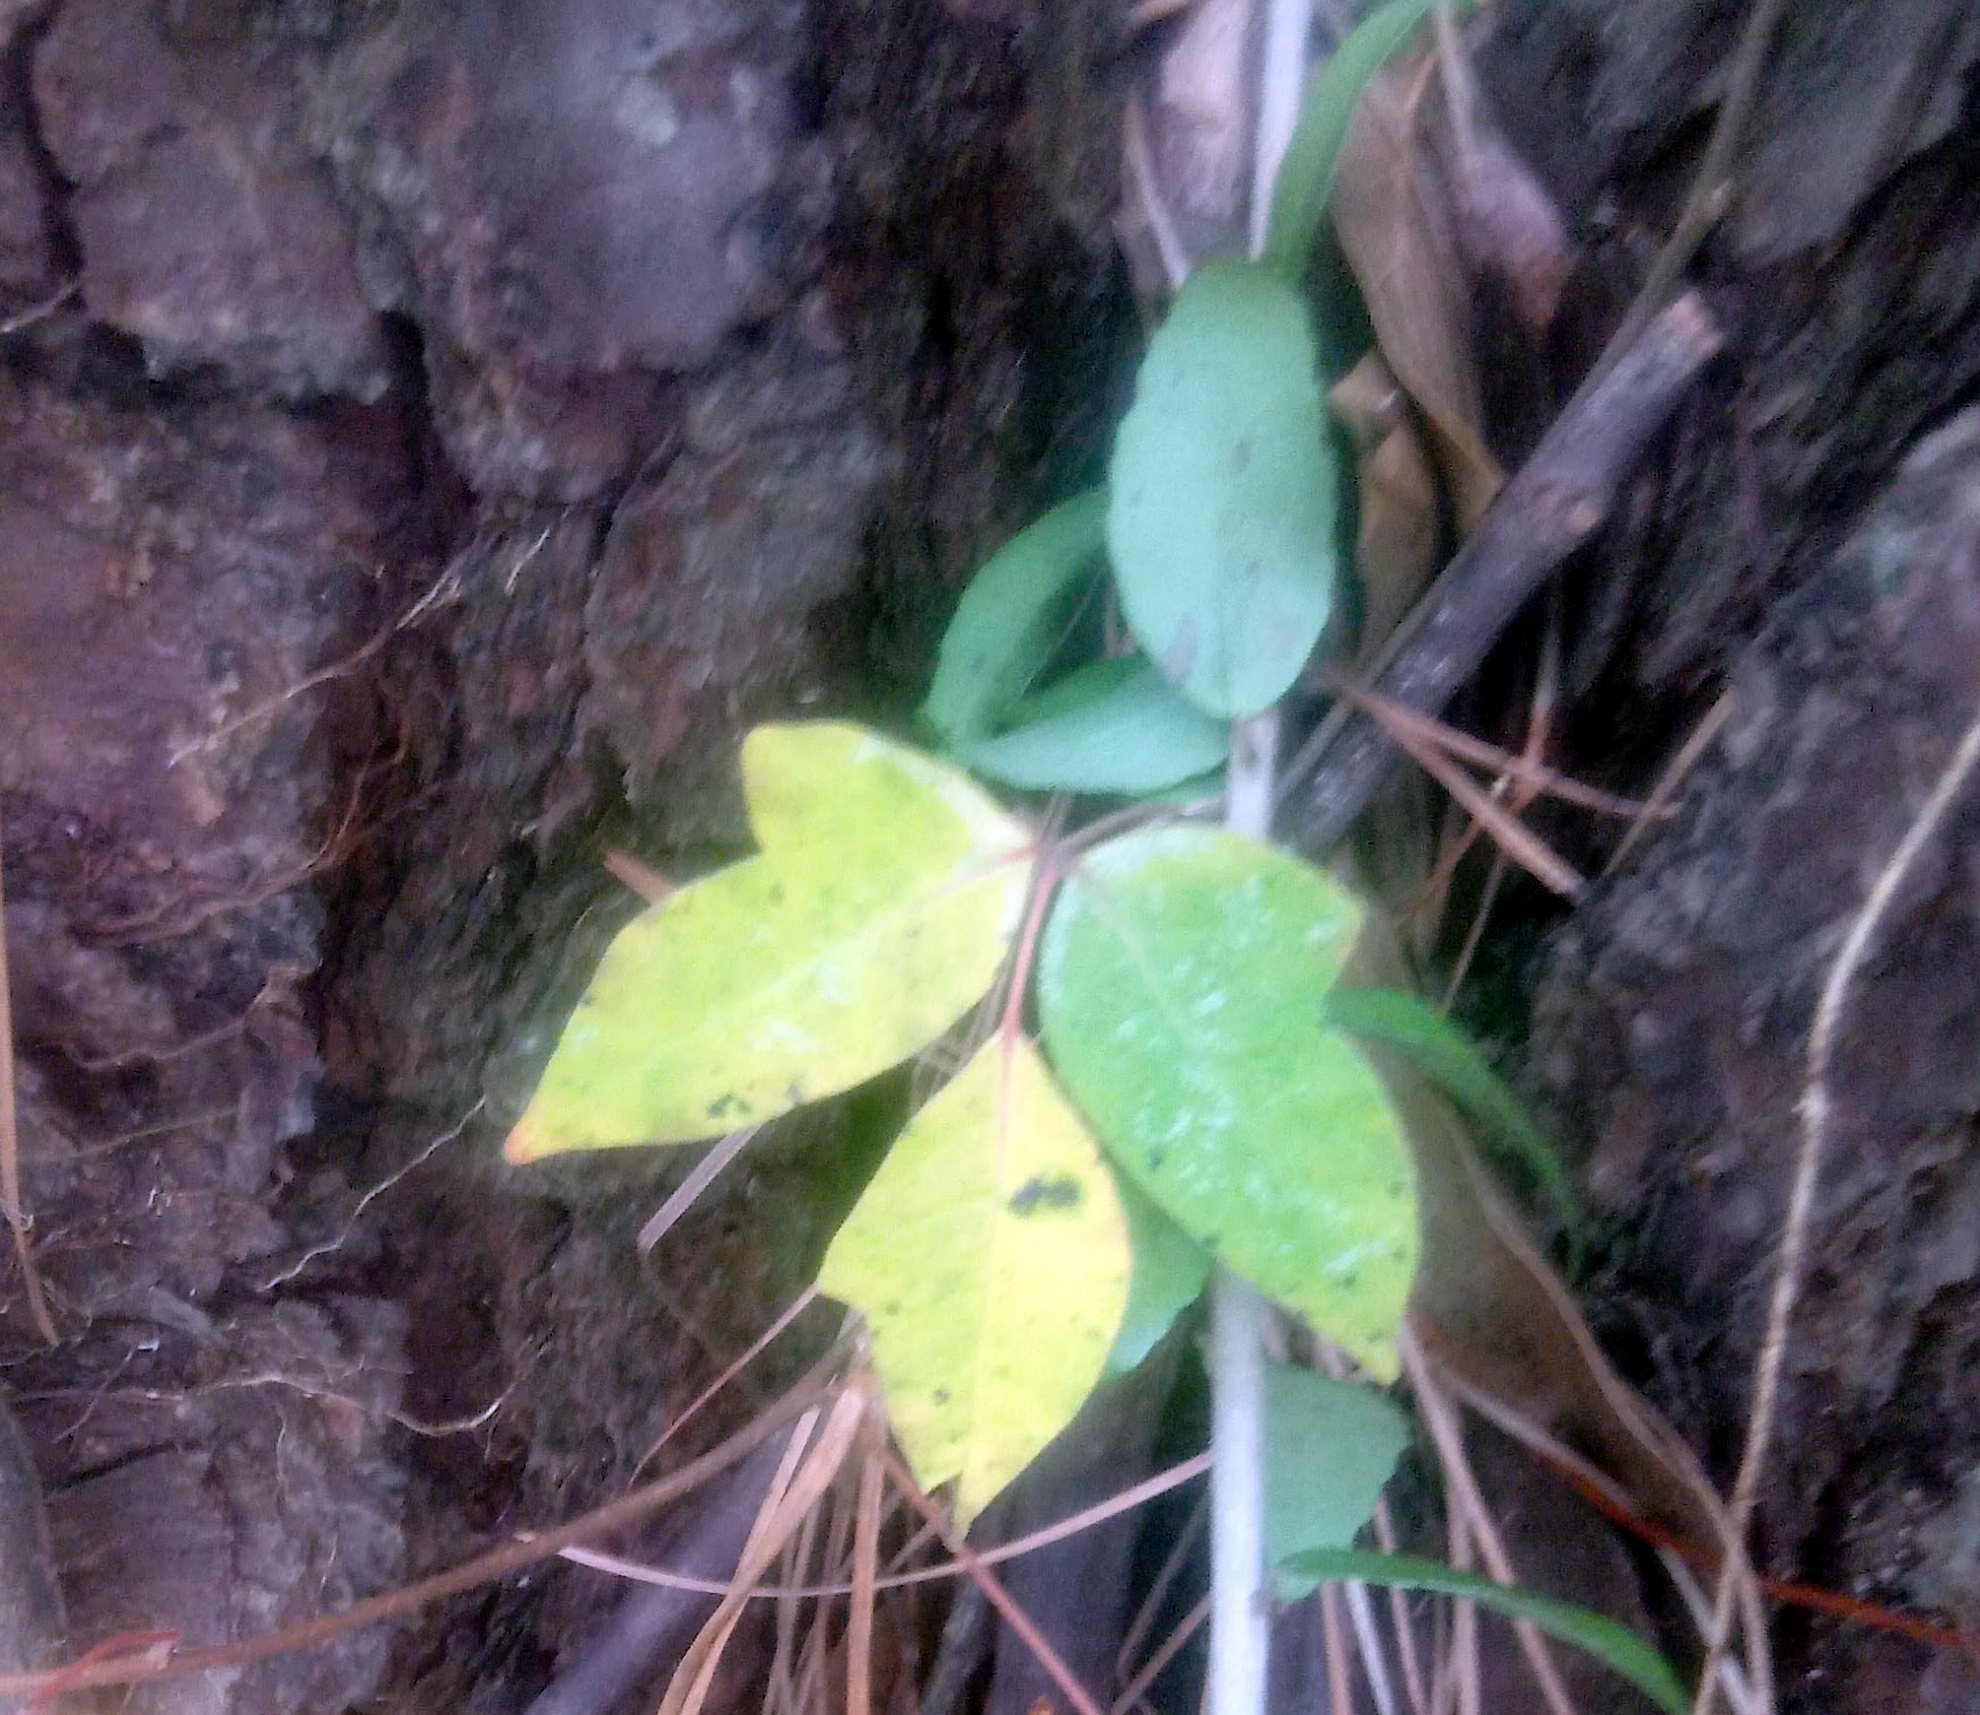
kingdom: Plantae
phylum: Tracheophyta
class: Magnoliopsida
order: Sapindales
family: Anacardiaceae
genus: Toxicodendron
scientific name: Toxicodendron radicans
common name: Poison ivy
